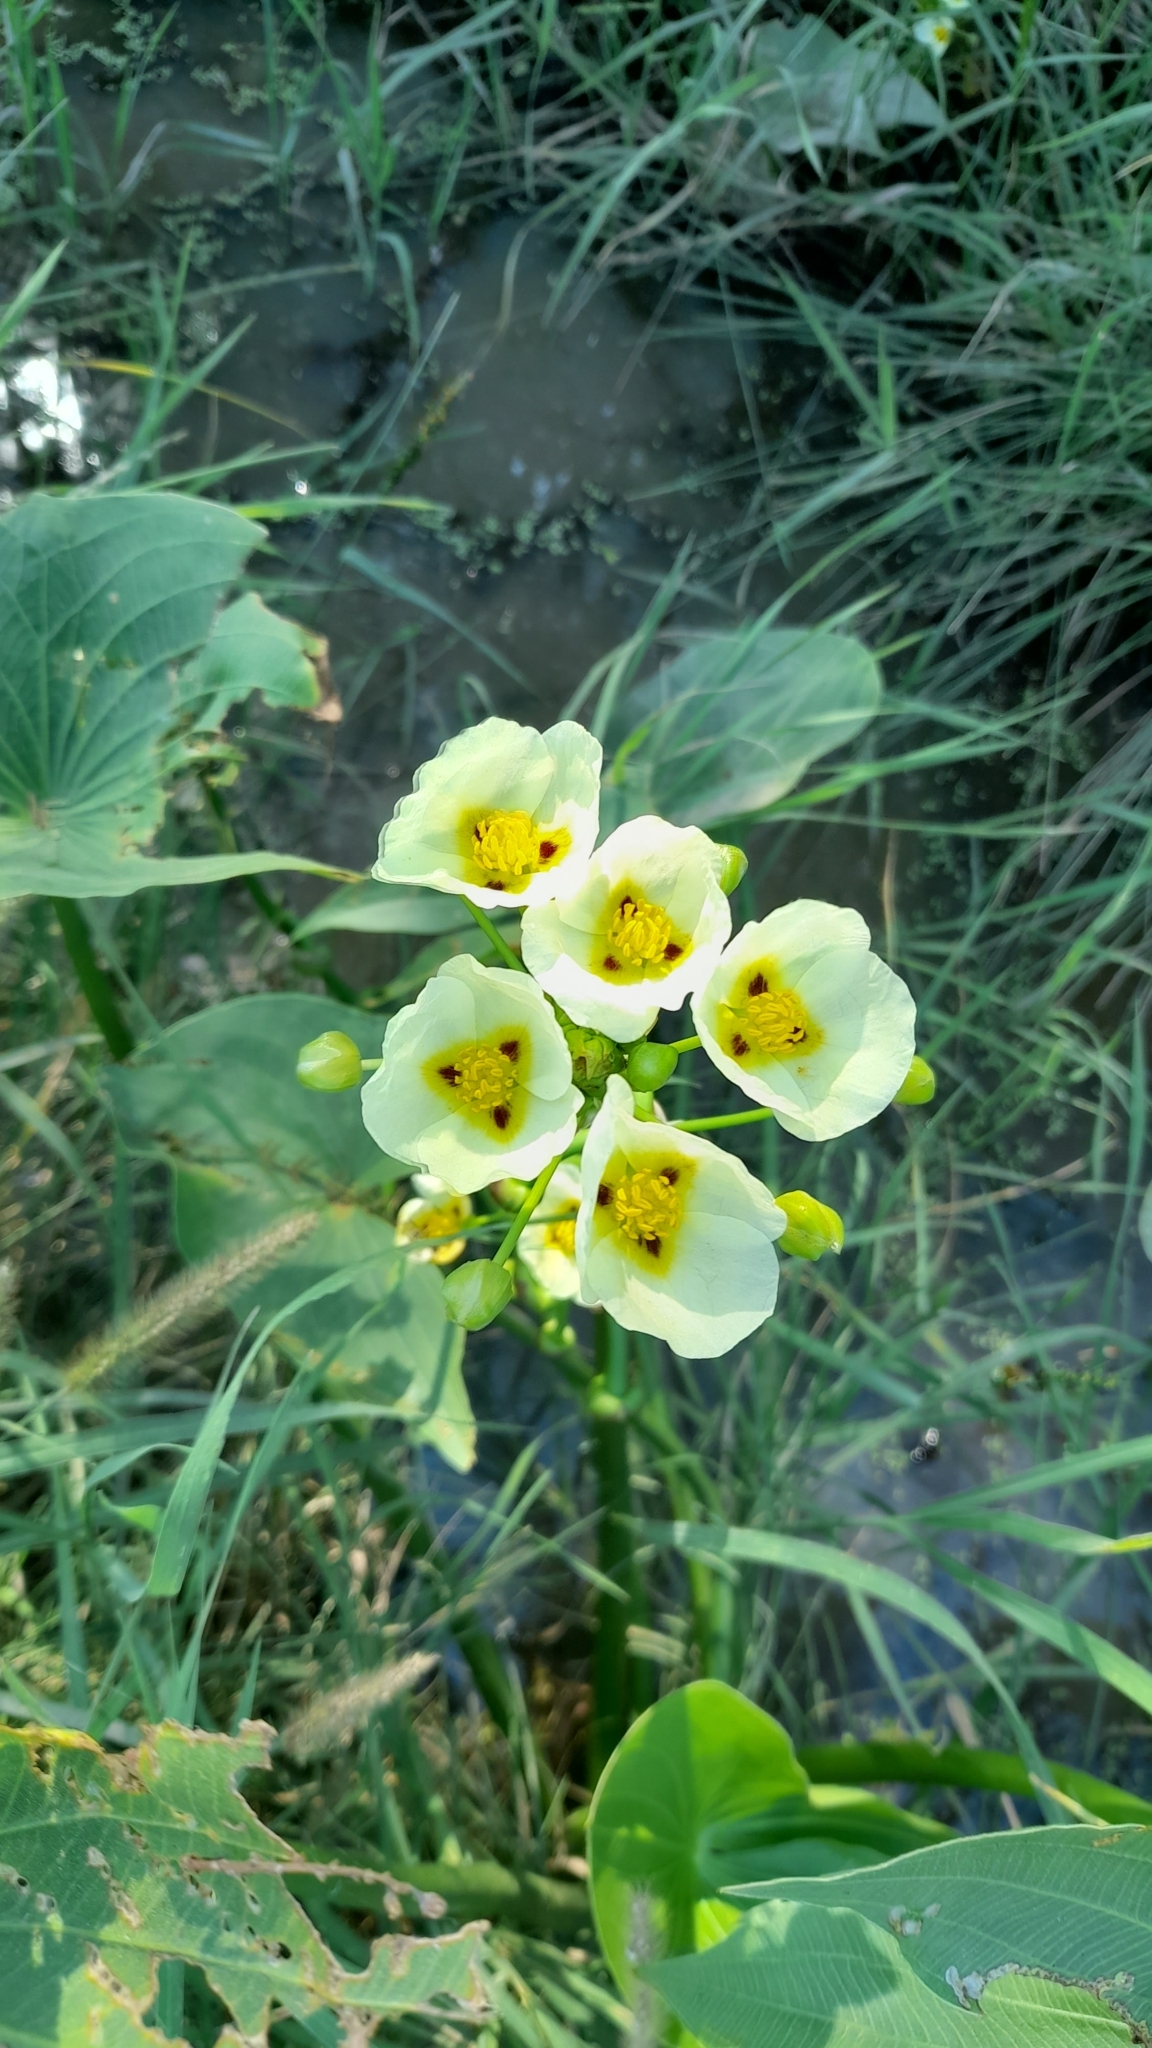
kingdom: Plantae
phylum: Tracheophyta
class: Liliopsida
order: Alismatales
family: Alismataceae
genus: Sagittaria
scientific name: Sagittaria montevidensis
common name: Giant arrowhead
